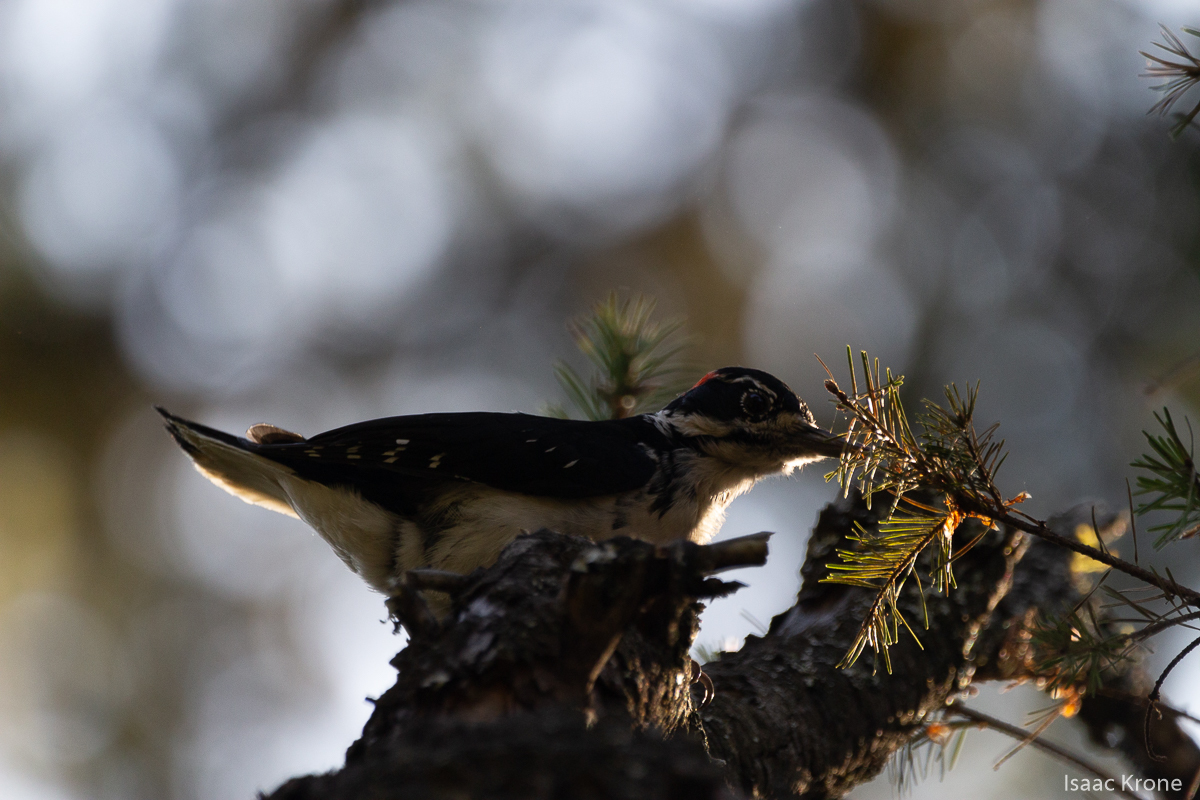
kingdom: Animalia
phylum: Chordata
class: Aves
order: Piciformes
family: Picidae
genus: Leuconotopicus
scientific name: Leuconotopicus villosus
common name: Hairy woodpecker
